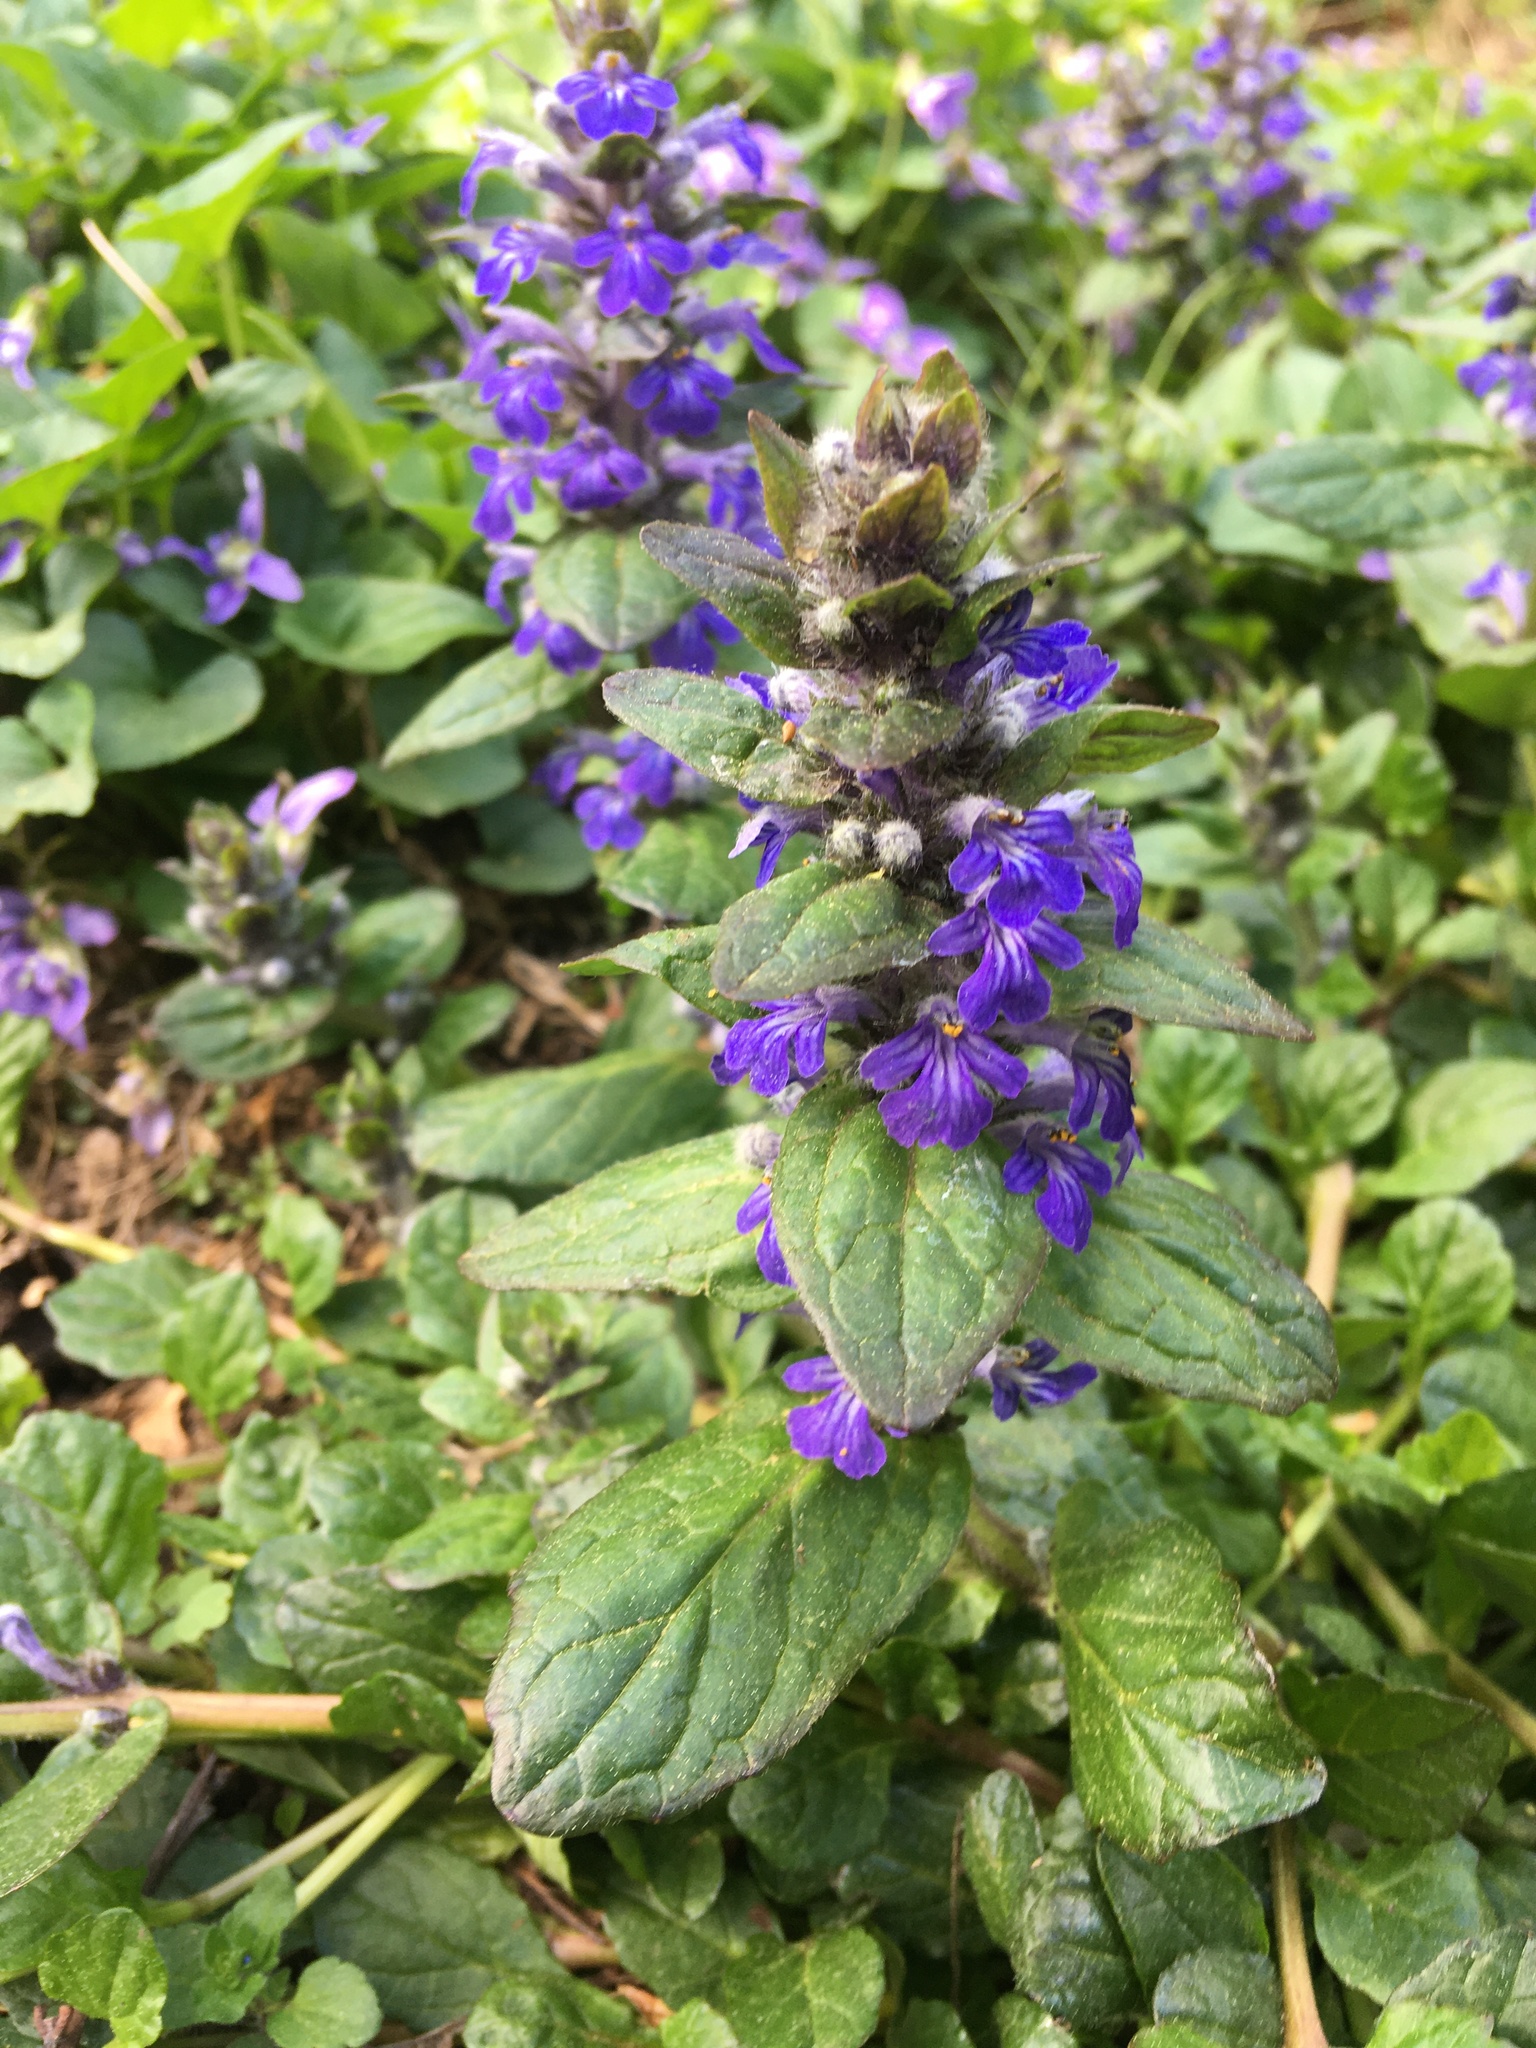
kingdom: Plantae
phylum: Tracheophyta
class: Magnoliopsida
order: Lamiales
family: Lamiaceae
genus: Ajuga
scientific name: Ajuga reptans
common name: Bugle
